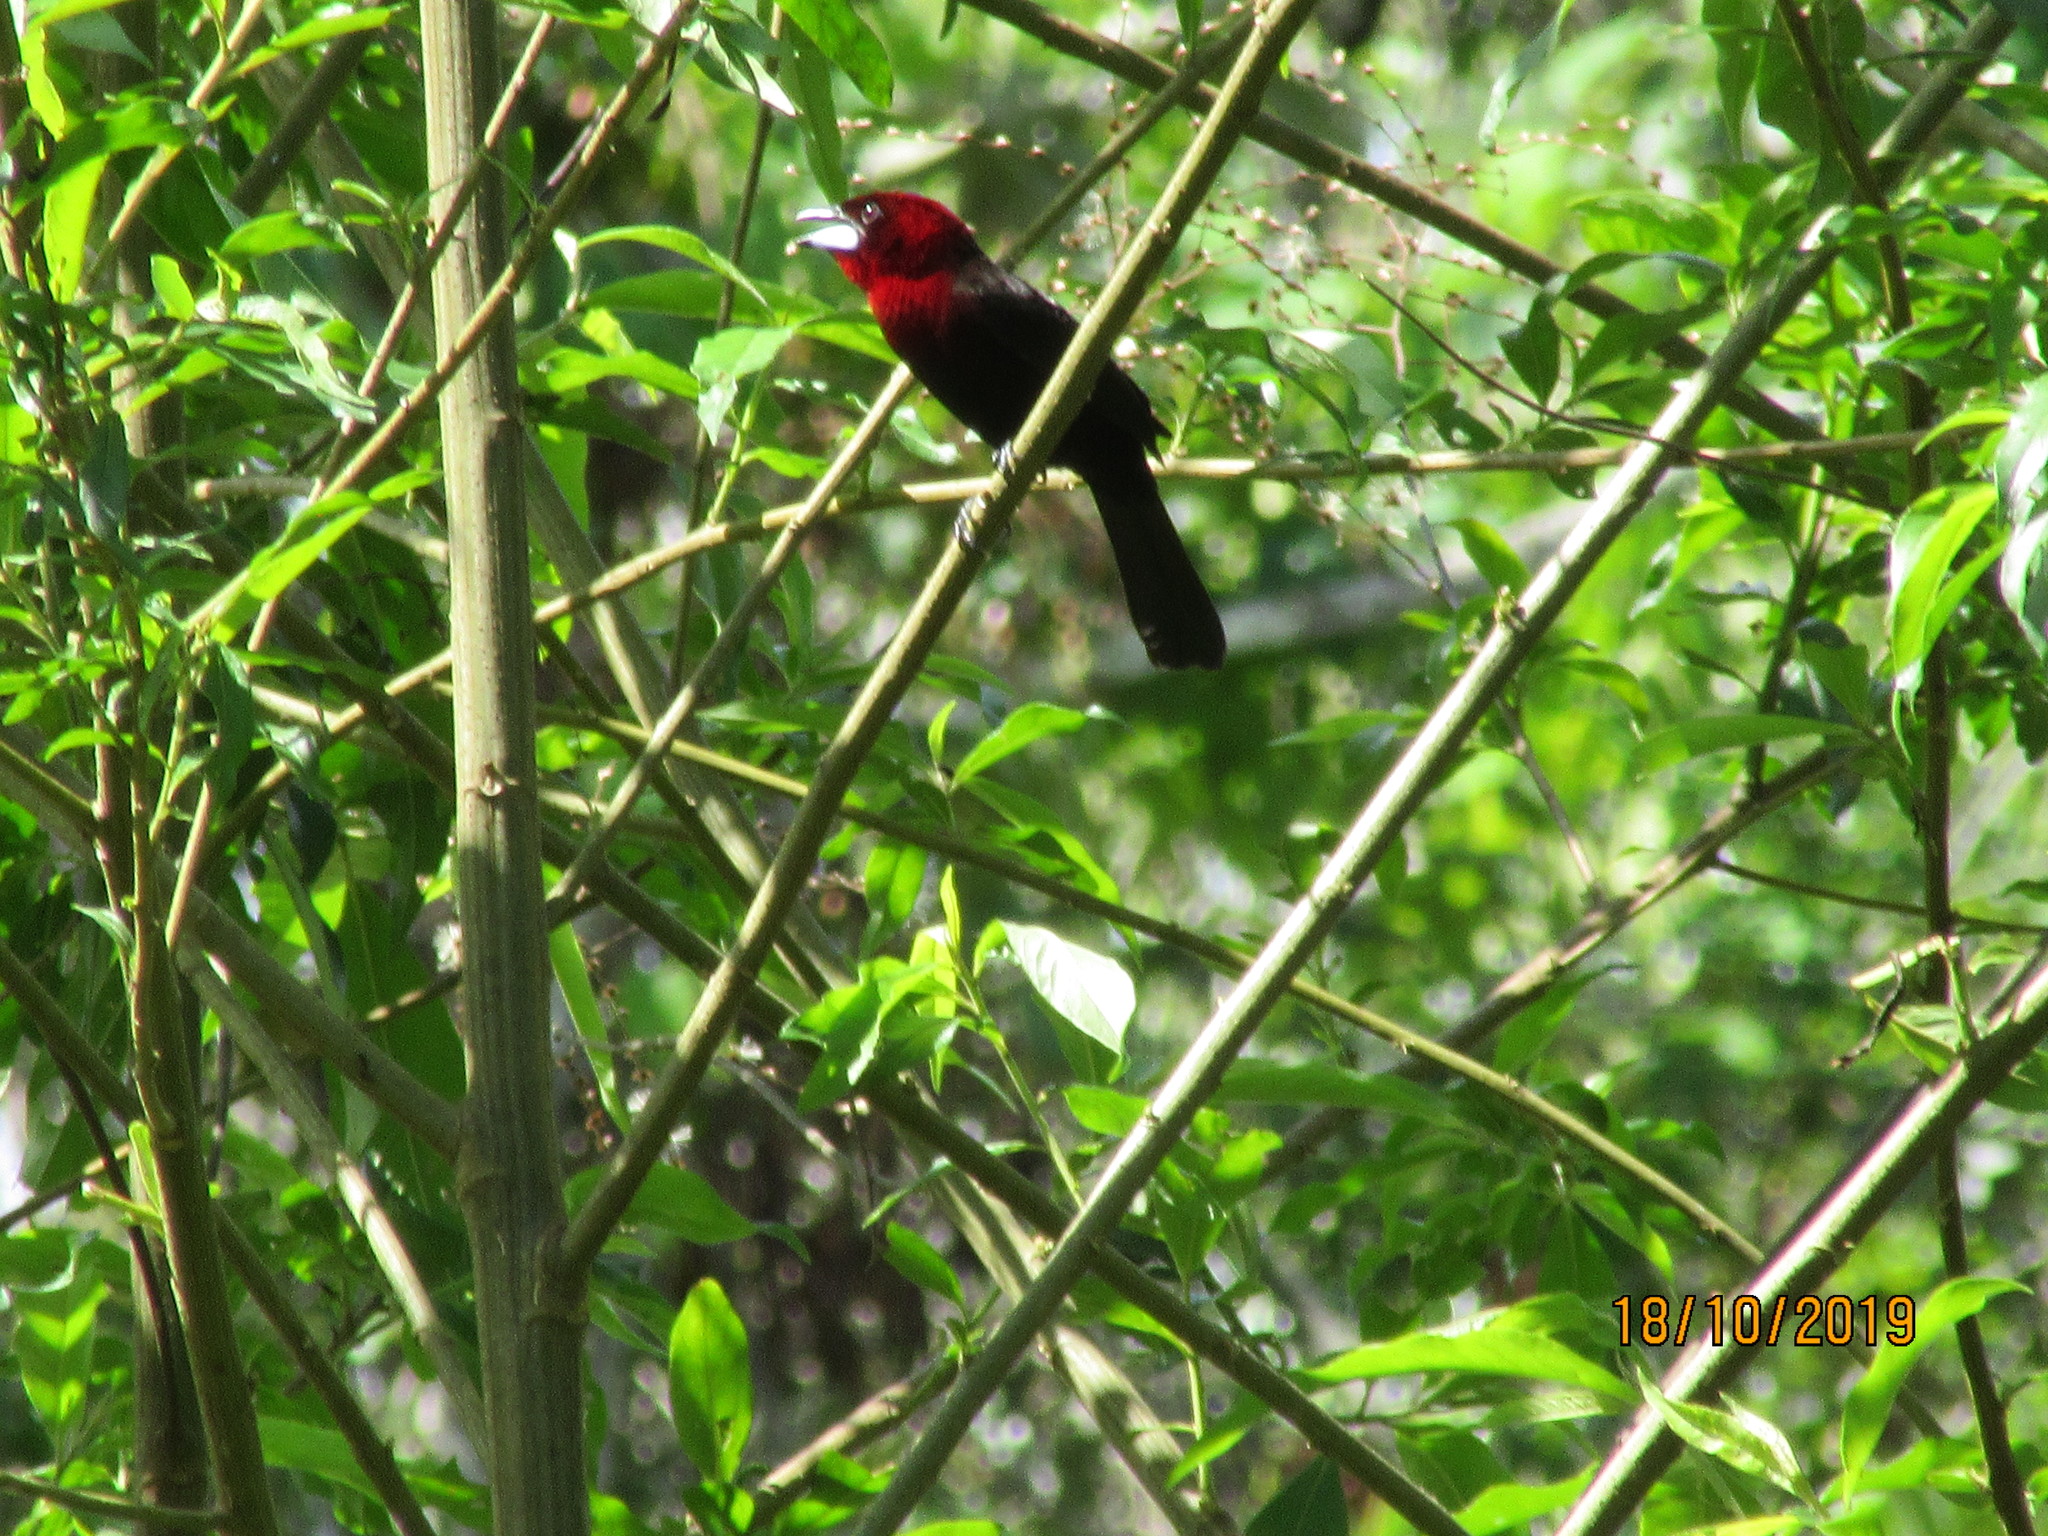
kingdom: Animalia
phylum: Chordata
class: Aves
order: Passeriformes
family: Thraupidae
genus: Ramphocelus
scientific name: Ramphocelus carbo
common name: Silver-beaked tanager
